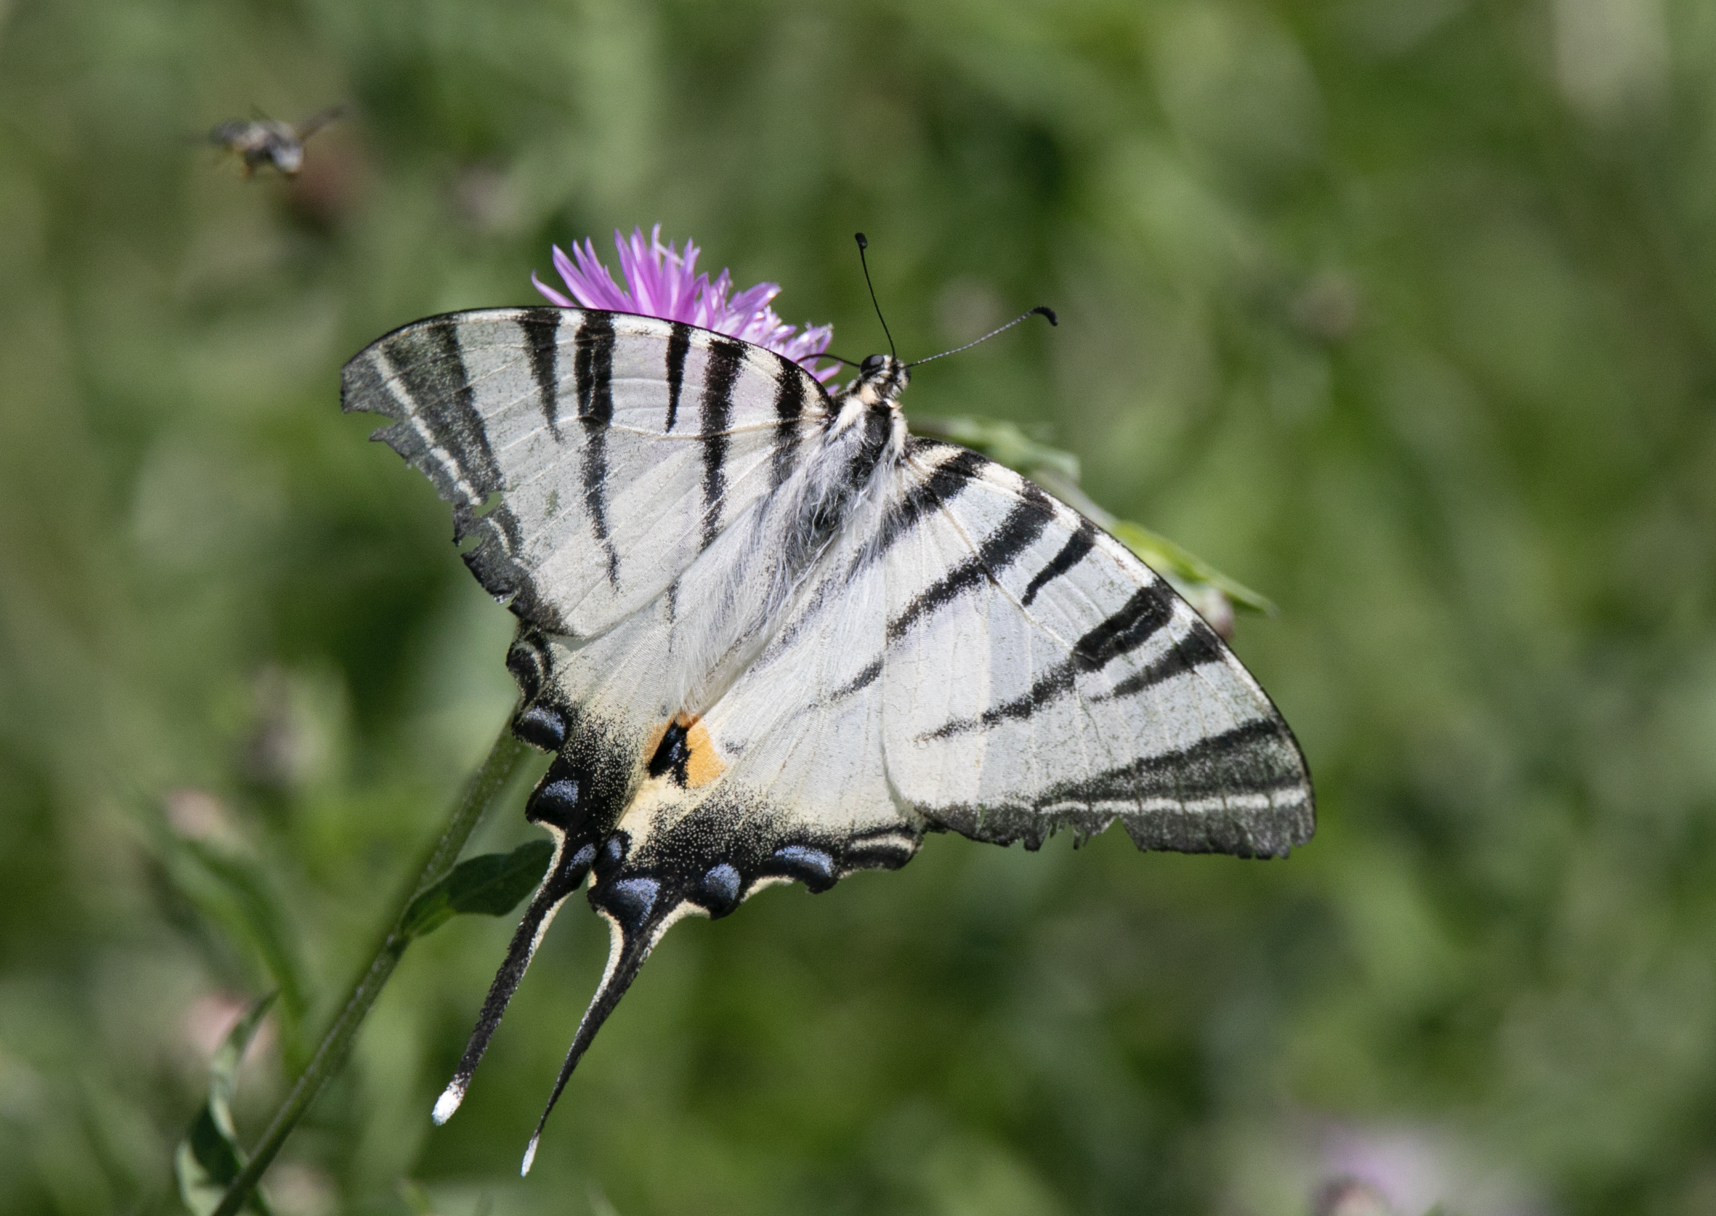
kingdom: Animalia
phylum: Arthropoda
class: Insecta
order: Lepidoptera
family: Papilionidae
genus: Iphiclides
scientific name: Iphiclides podalirius
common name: Scarce swallowtail
